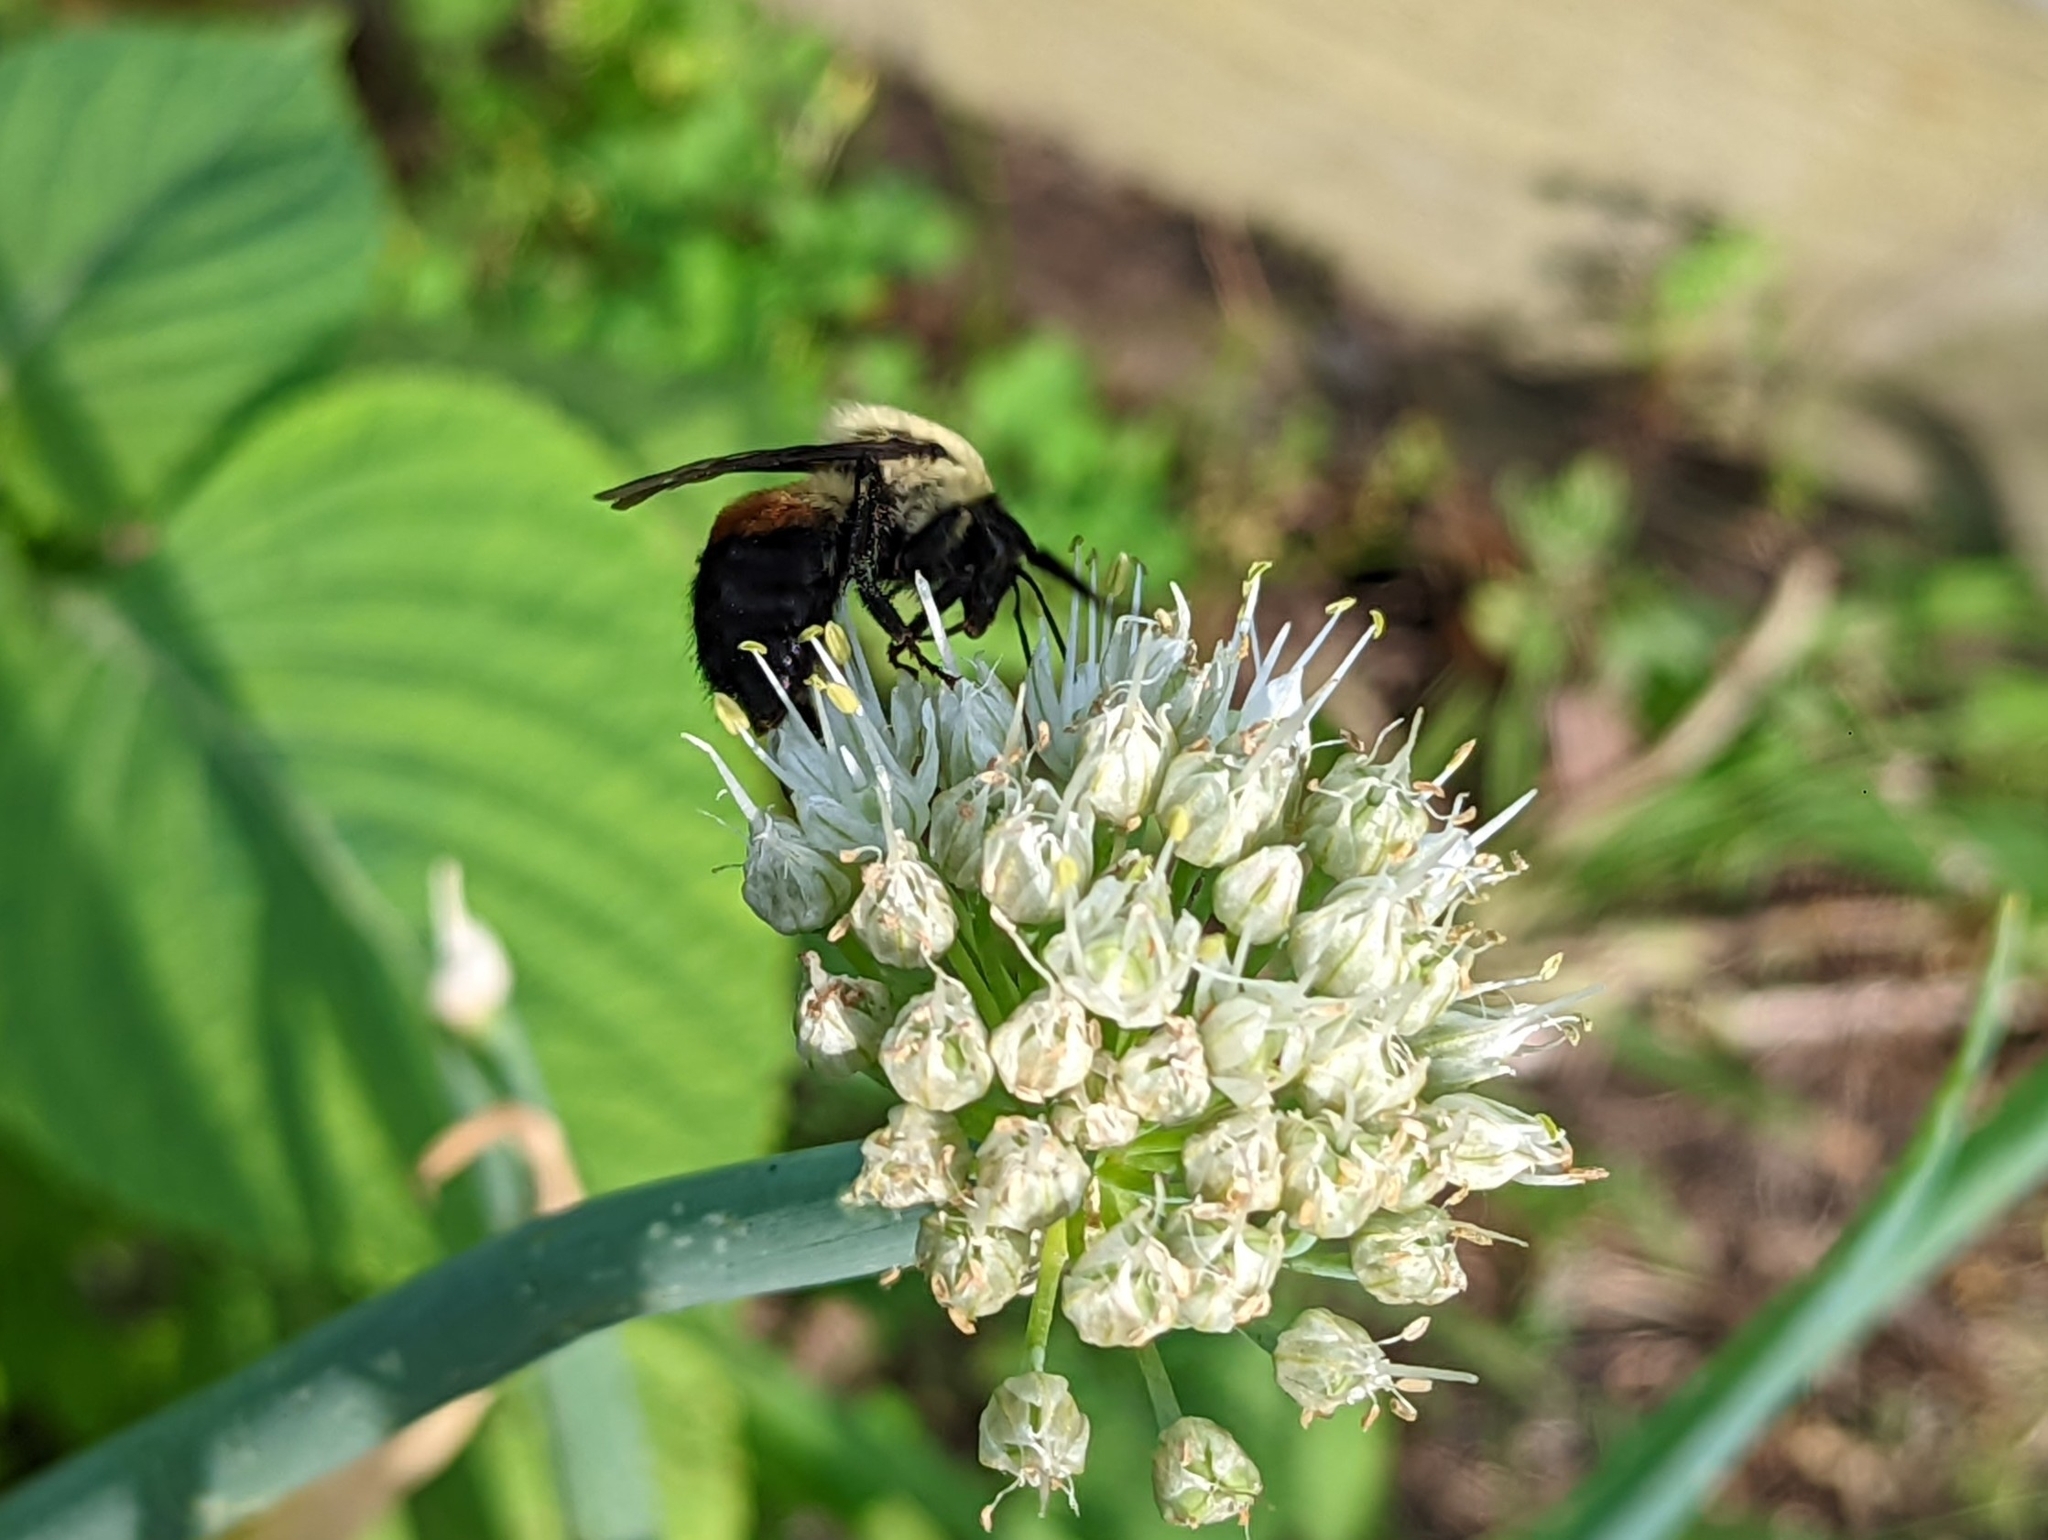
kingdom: Animalia
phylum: Arthropoda
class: Insecta
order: Hymenoptera
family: Apidae
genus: Bombus
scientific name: Bombus griseocollis
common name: Brown-belted bumble bee
